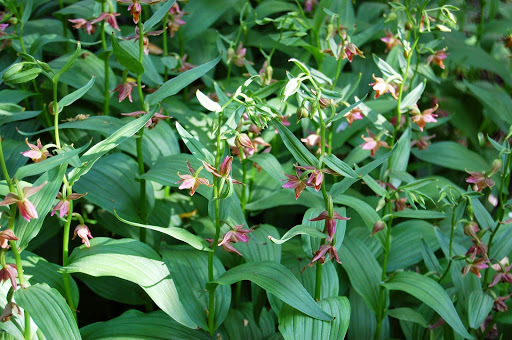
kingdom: Plantae
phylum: Tracheophyta
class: Liliopsida
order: Asparagales
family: Orchidaceae
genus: Epipactis
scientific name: Epipactis gigantea
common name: Chatterbox
